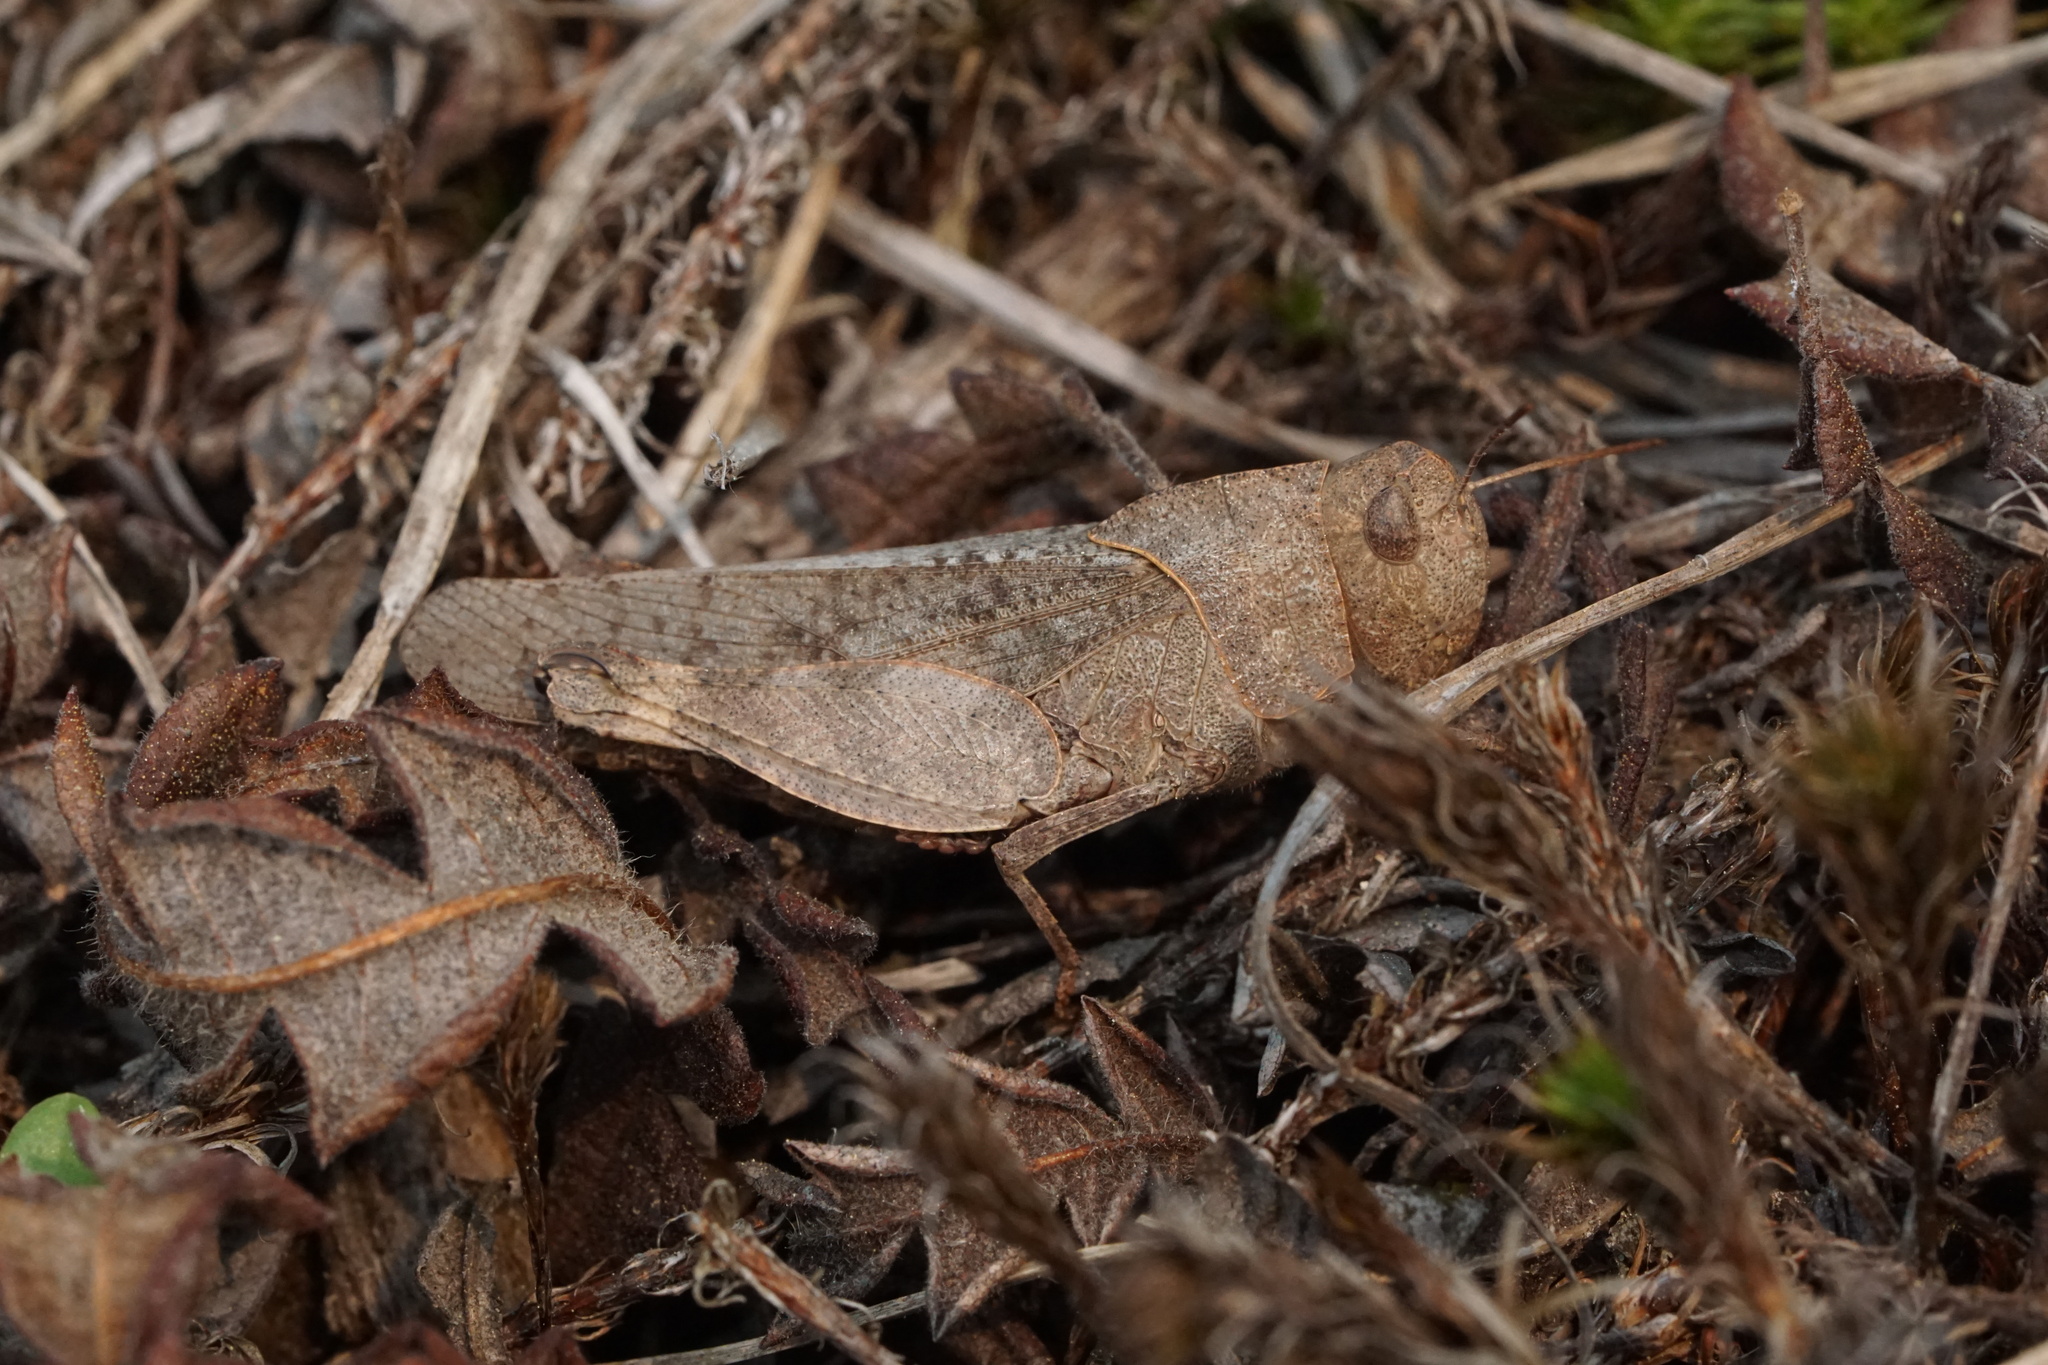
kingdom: Animalia
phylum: Arthropoda
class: Insecta
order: Orthoptera
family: Acrididae
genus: Arphia
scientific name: Arphia sulphurea
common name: Spring yellow-winged locust
